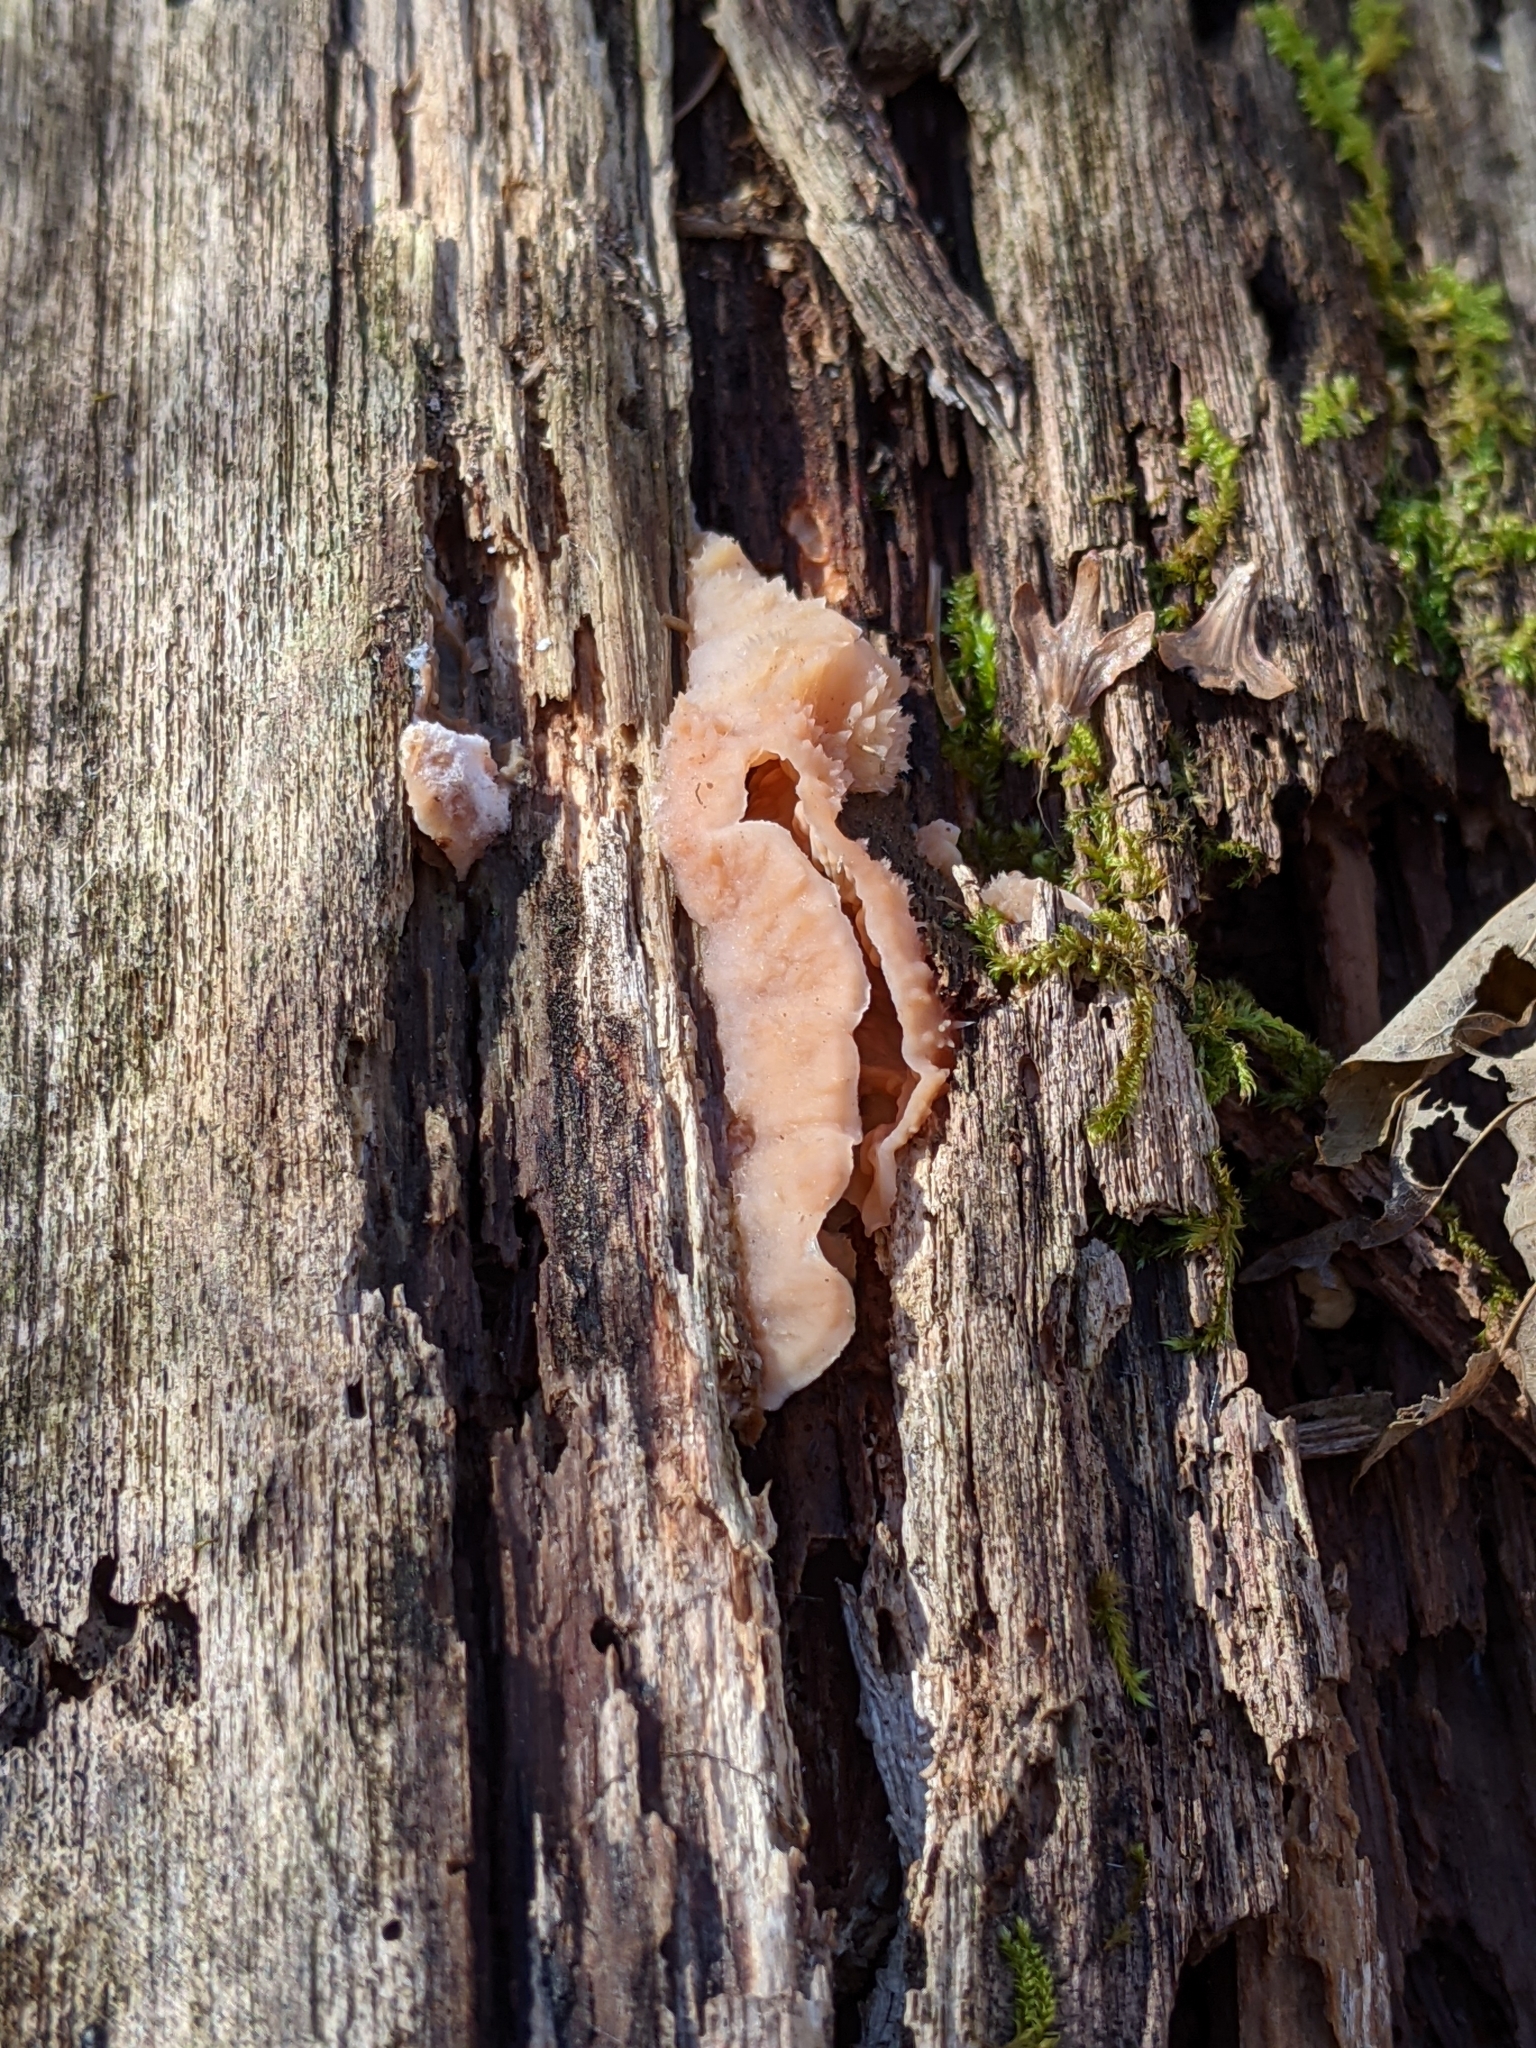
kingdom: Fungi
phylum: Basidiomycota
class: Agaricomycetes
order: Polyporales
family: Meruliaceae
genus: Phlebia
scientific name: Phlebia tremellosa
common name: Jelly rot
